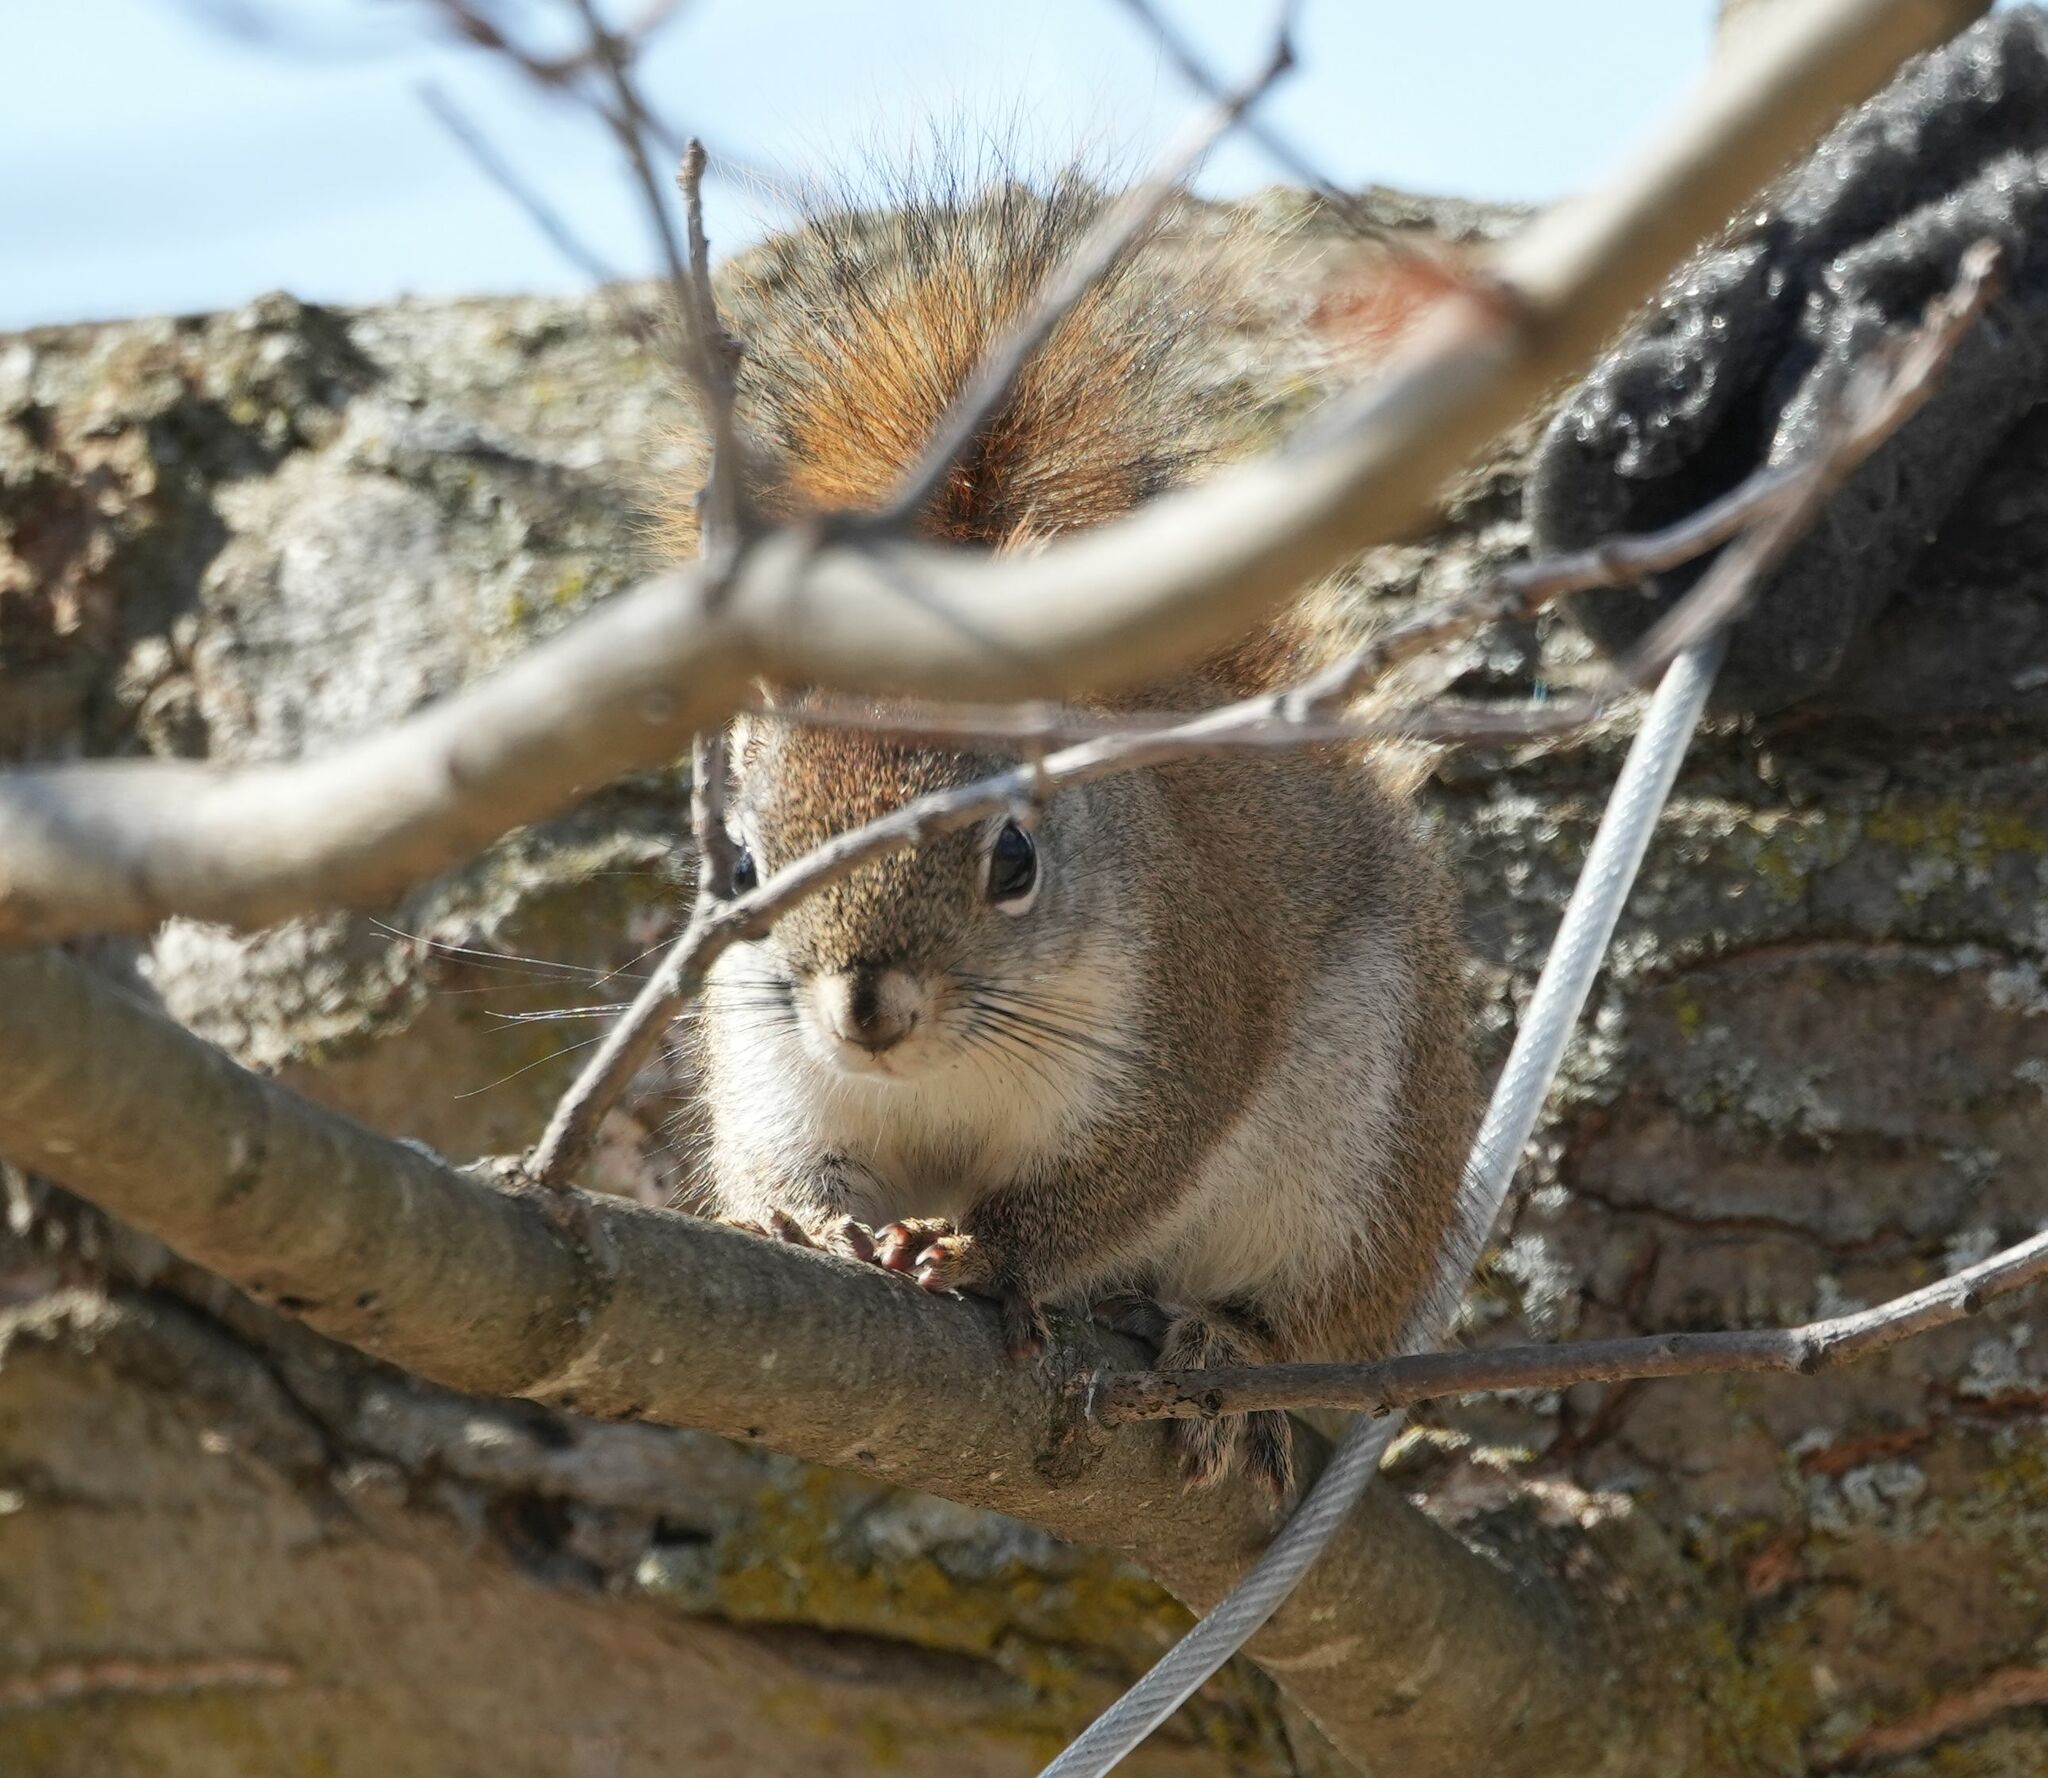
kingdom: Animalia
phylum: Chordata
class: Mammalia
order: Rodentia
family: Sciuridae
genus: Tamiasciurus
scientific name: Tamiasciurus hudsonicus
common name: Red squirrel
